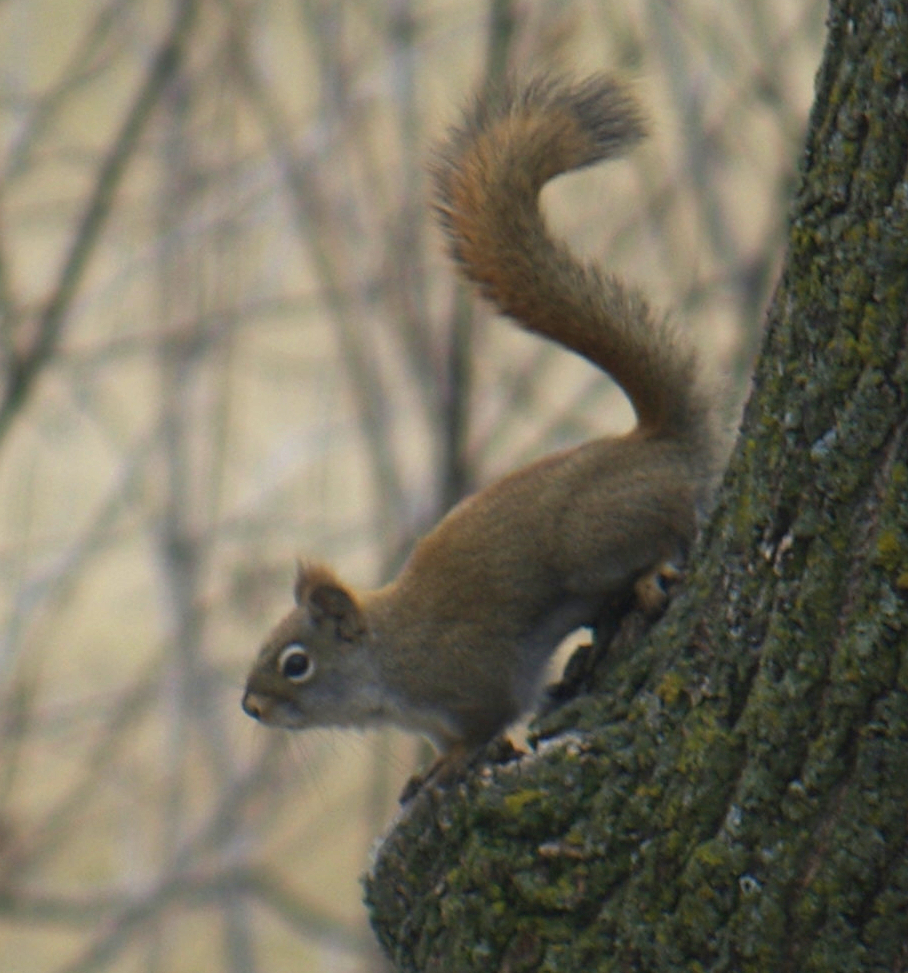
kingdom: Animalia
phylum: Chordata
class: Mammalia
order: Rodentia
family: Sciuridae
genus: Tamiasciurus
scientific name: Tamiasciurus hudsonicus
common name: Red squirrel
